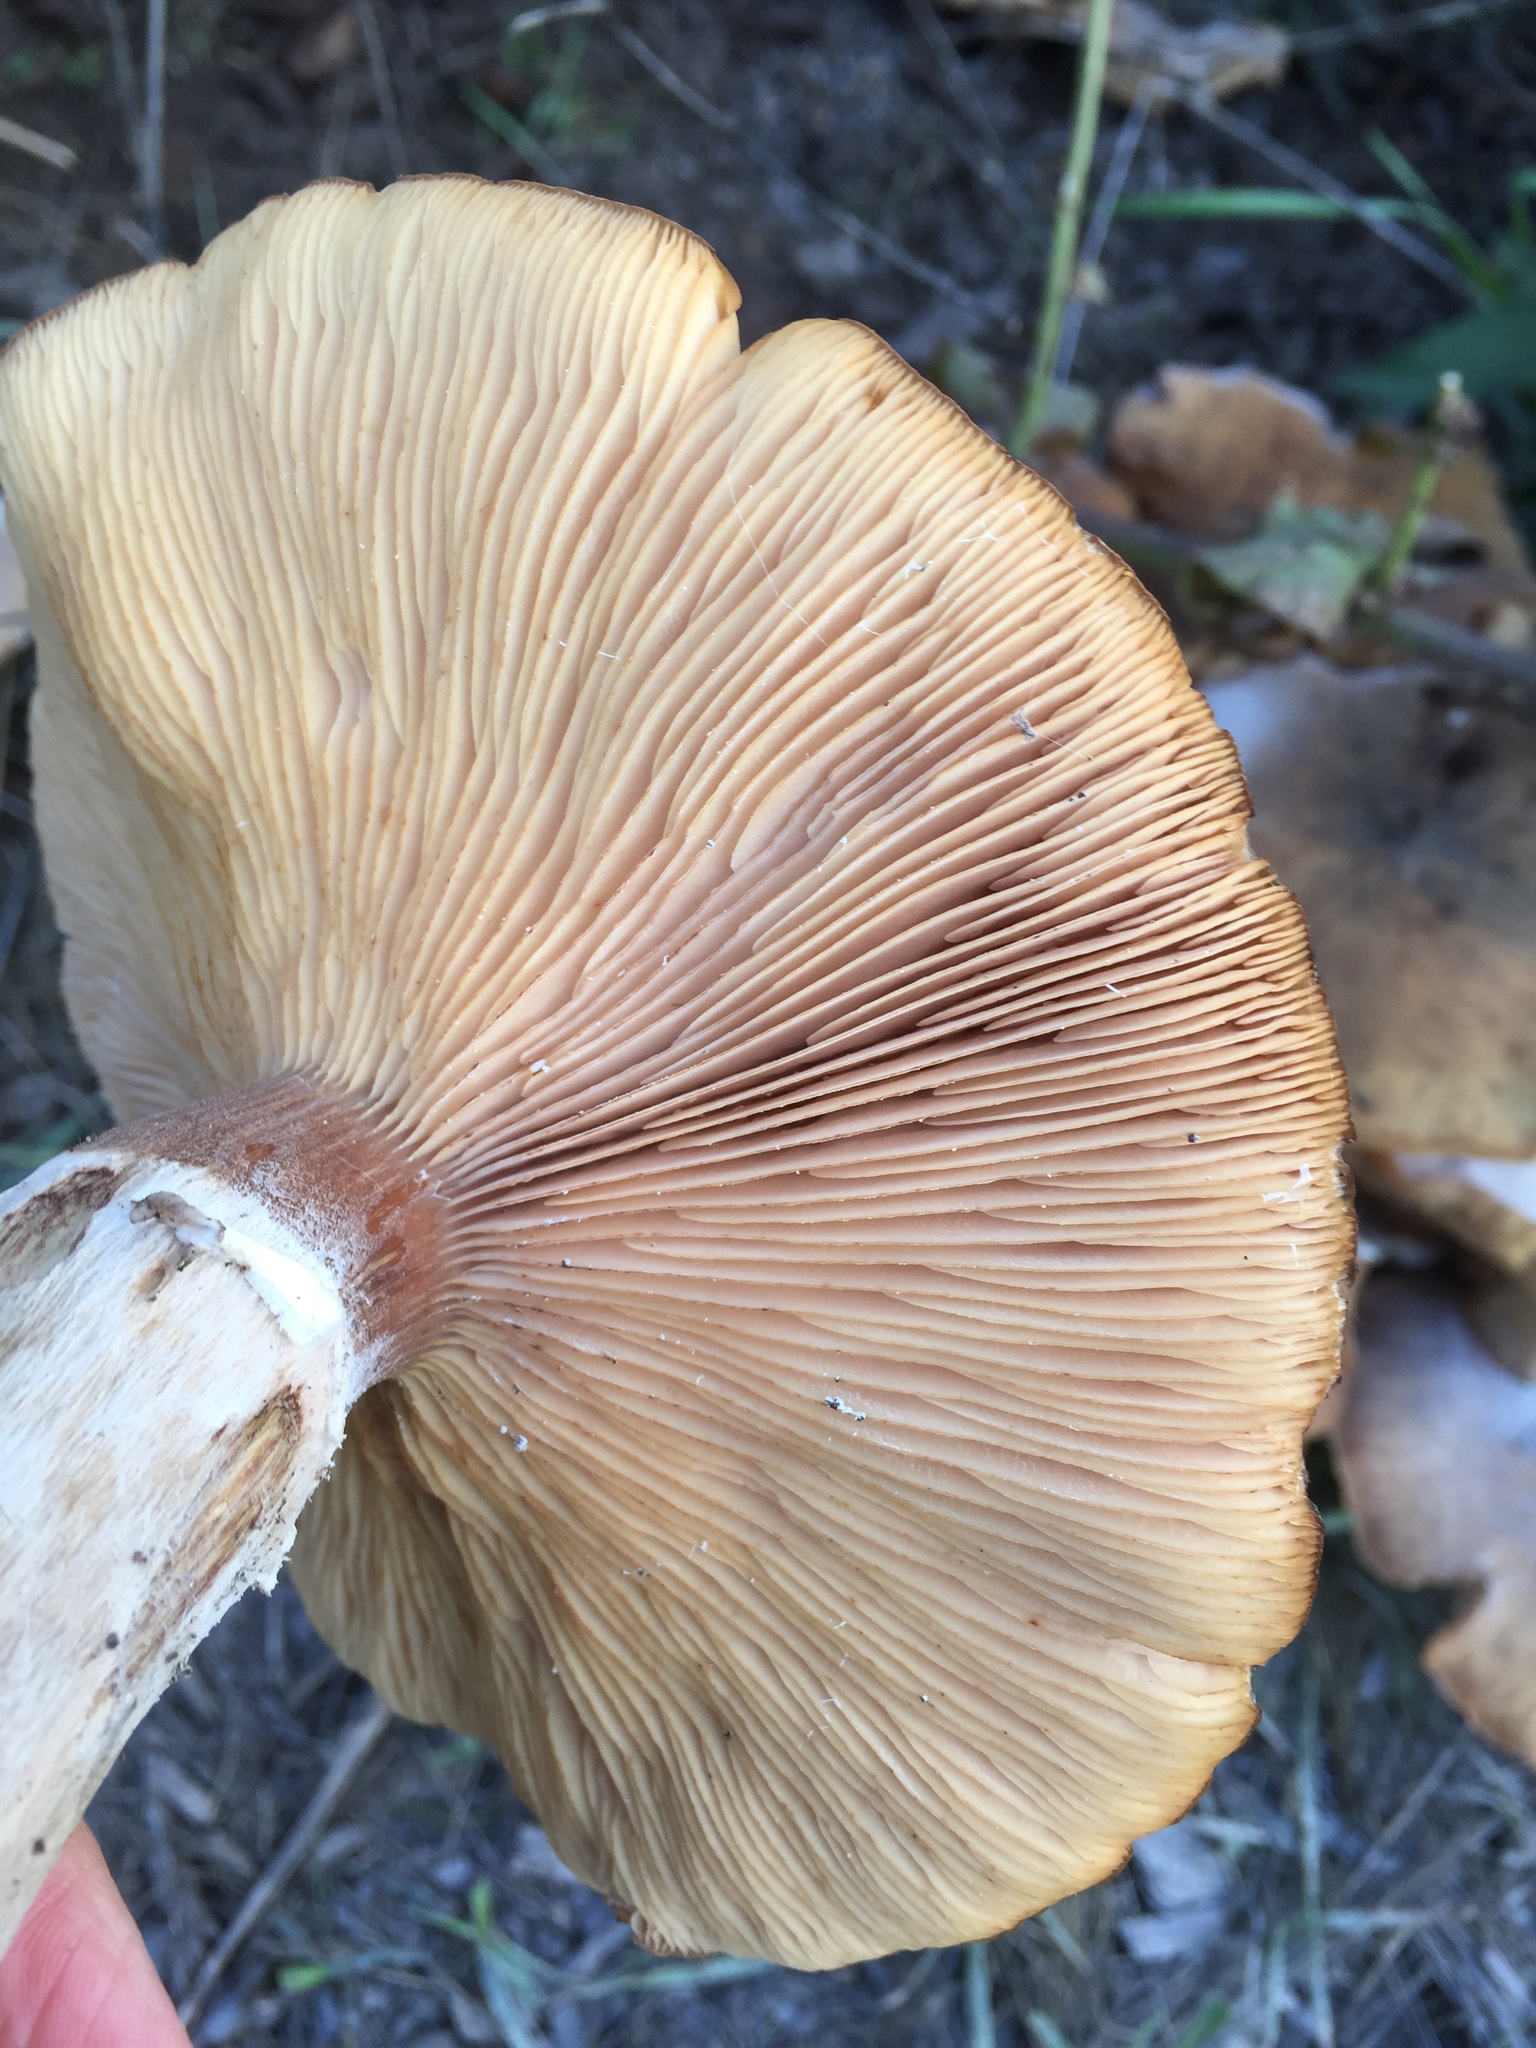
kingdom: Fungi
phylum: Basidiomycota
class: Agaricomycetes
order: Agaricales
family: Physalacriaceae
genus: Armillaria
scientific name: Armillaria mellea
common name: Honey fungus
